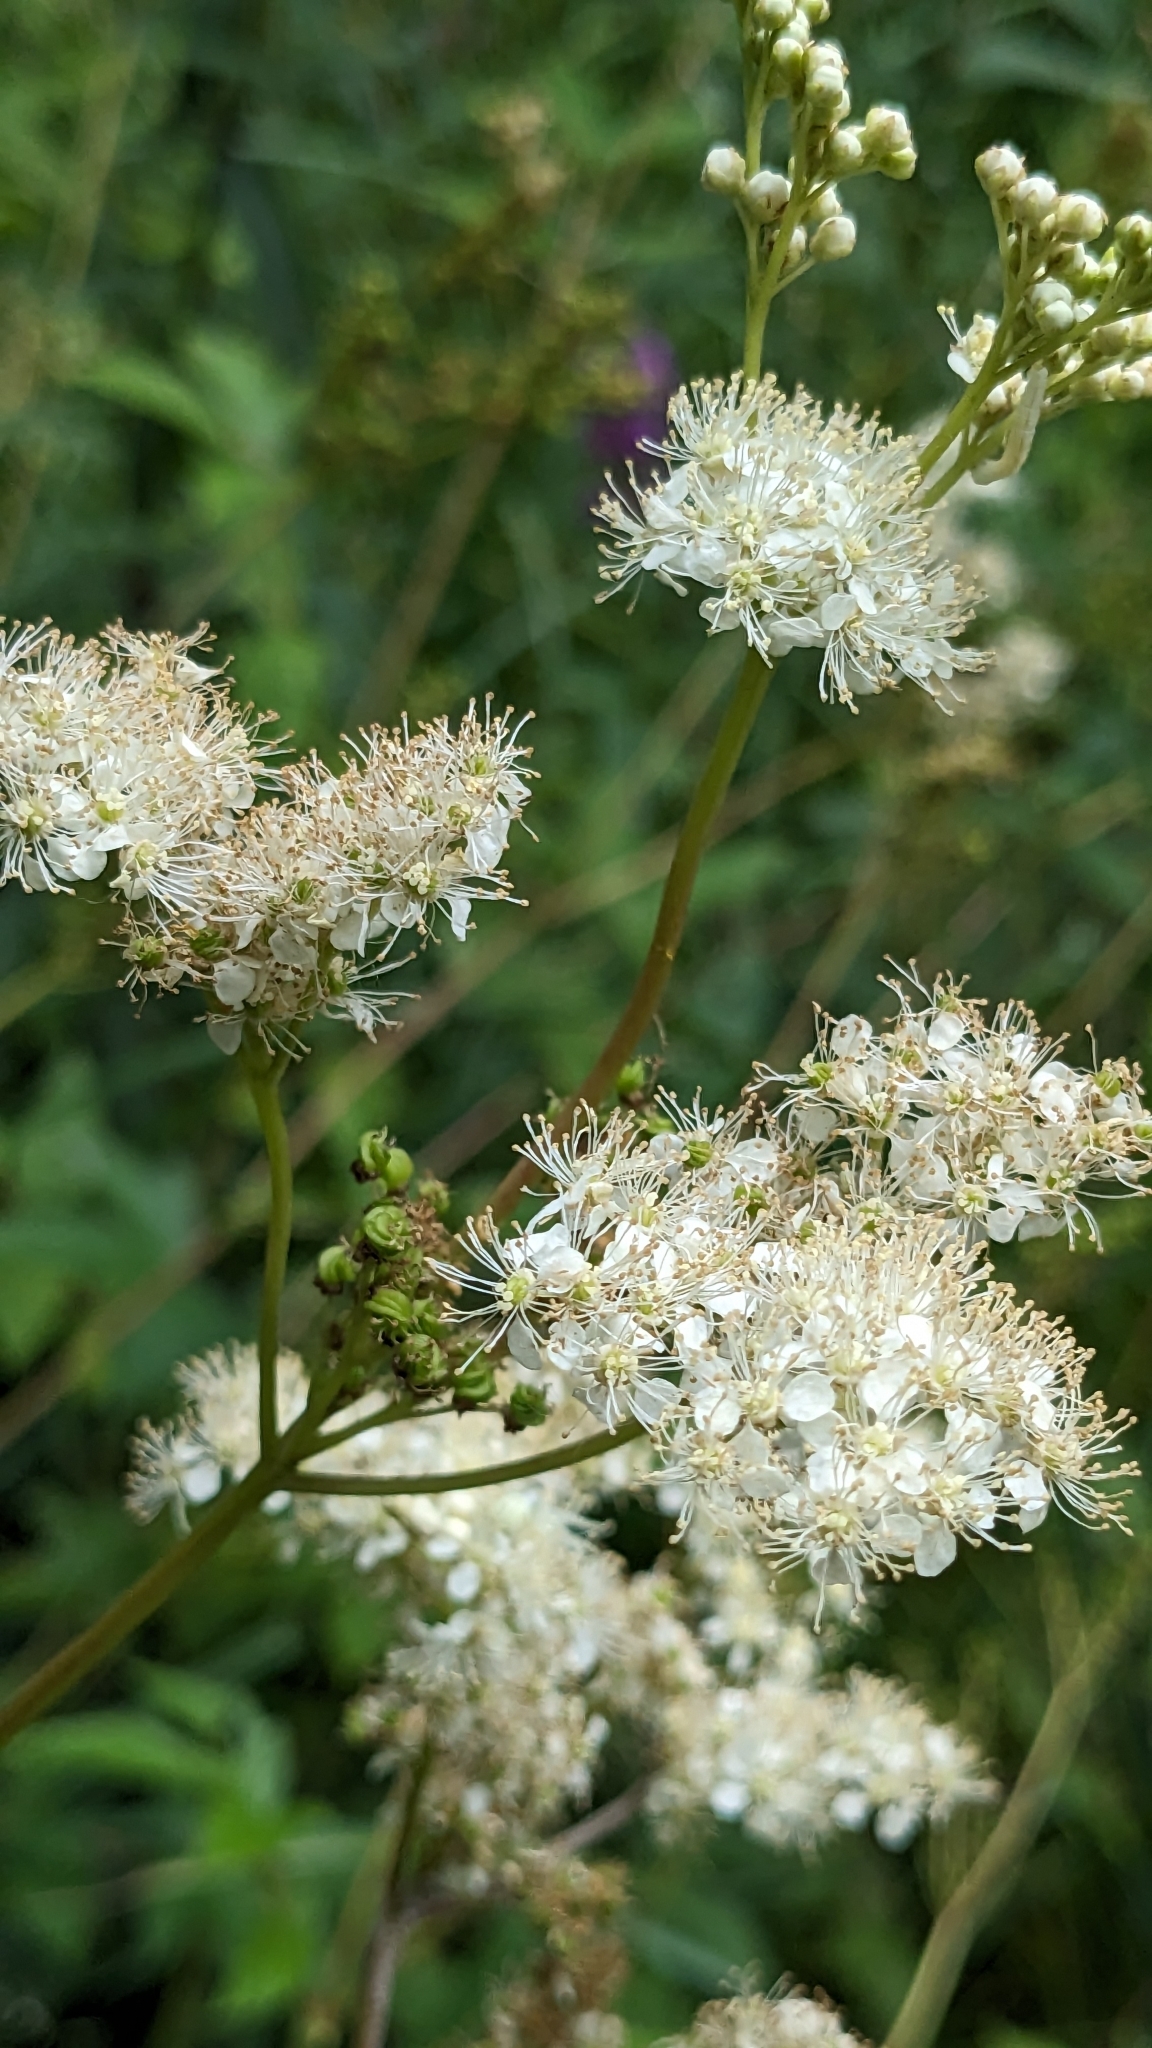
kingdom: Plantae
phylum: Tracheophyta
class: Magnoliopsida
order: Rosales
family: Rosaceae
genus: Filipendula
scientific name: Filipendula ulmaria
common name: Meadowsweet
